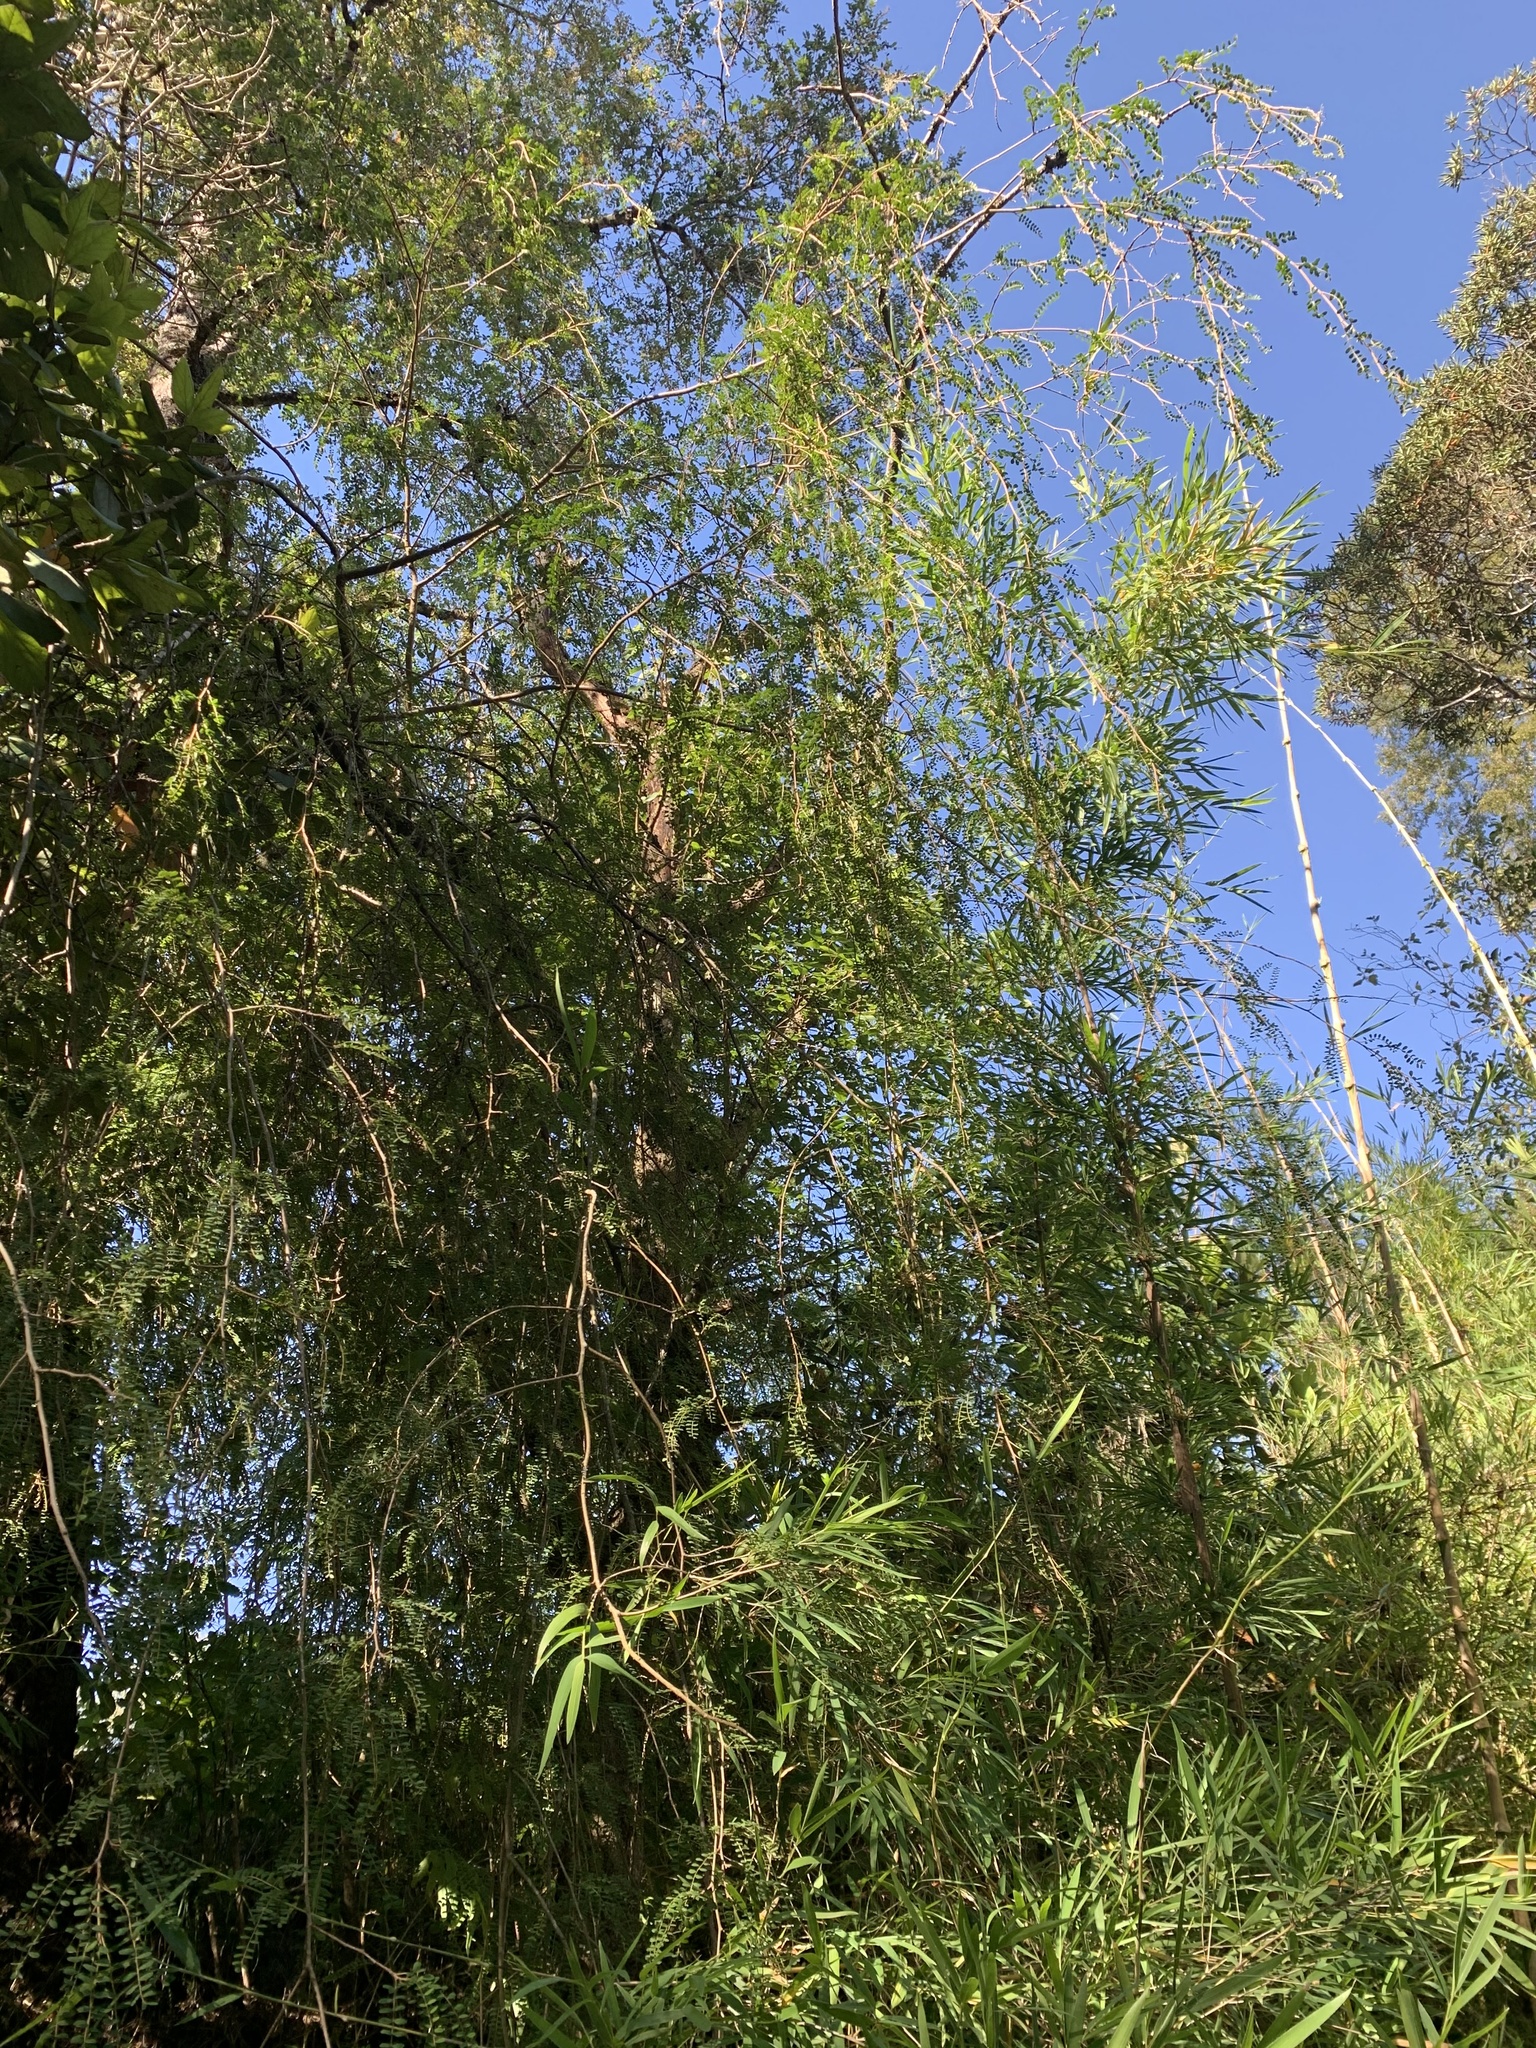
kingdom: Plantae
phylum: Tracheophyta
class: Magnoliopsida
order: Fabales
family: Fabaceae
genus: Sophora
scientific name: Sophora cassioides
